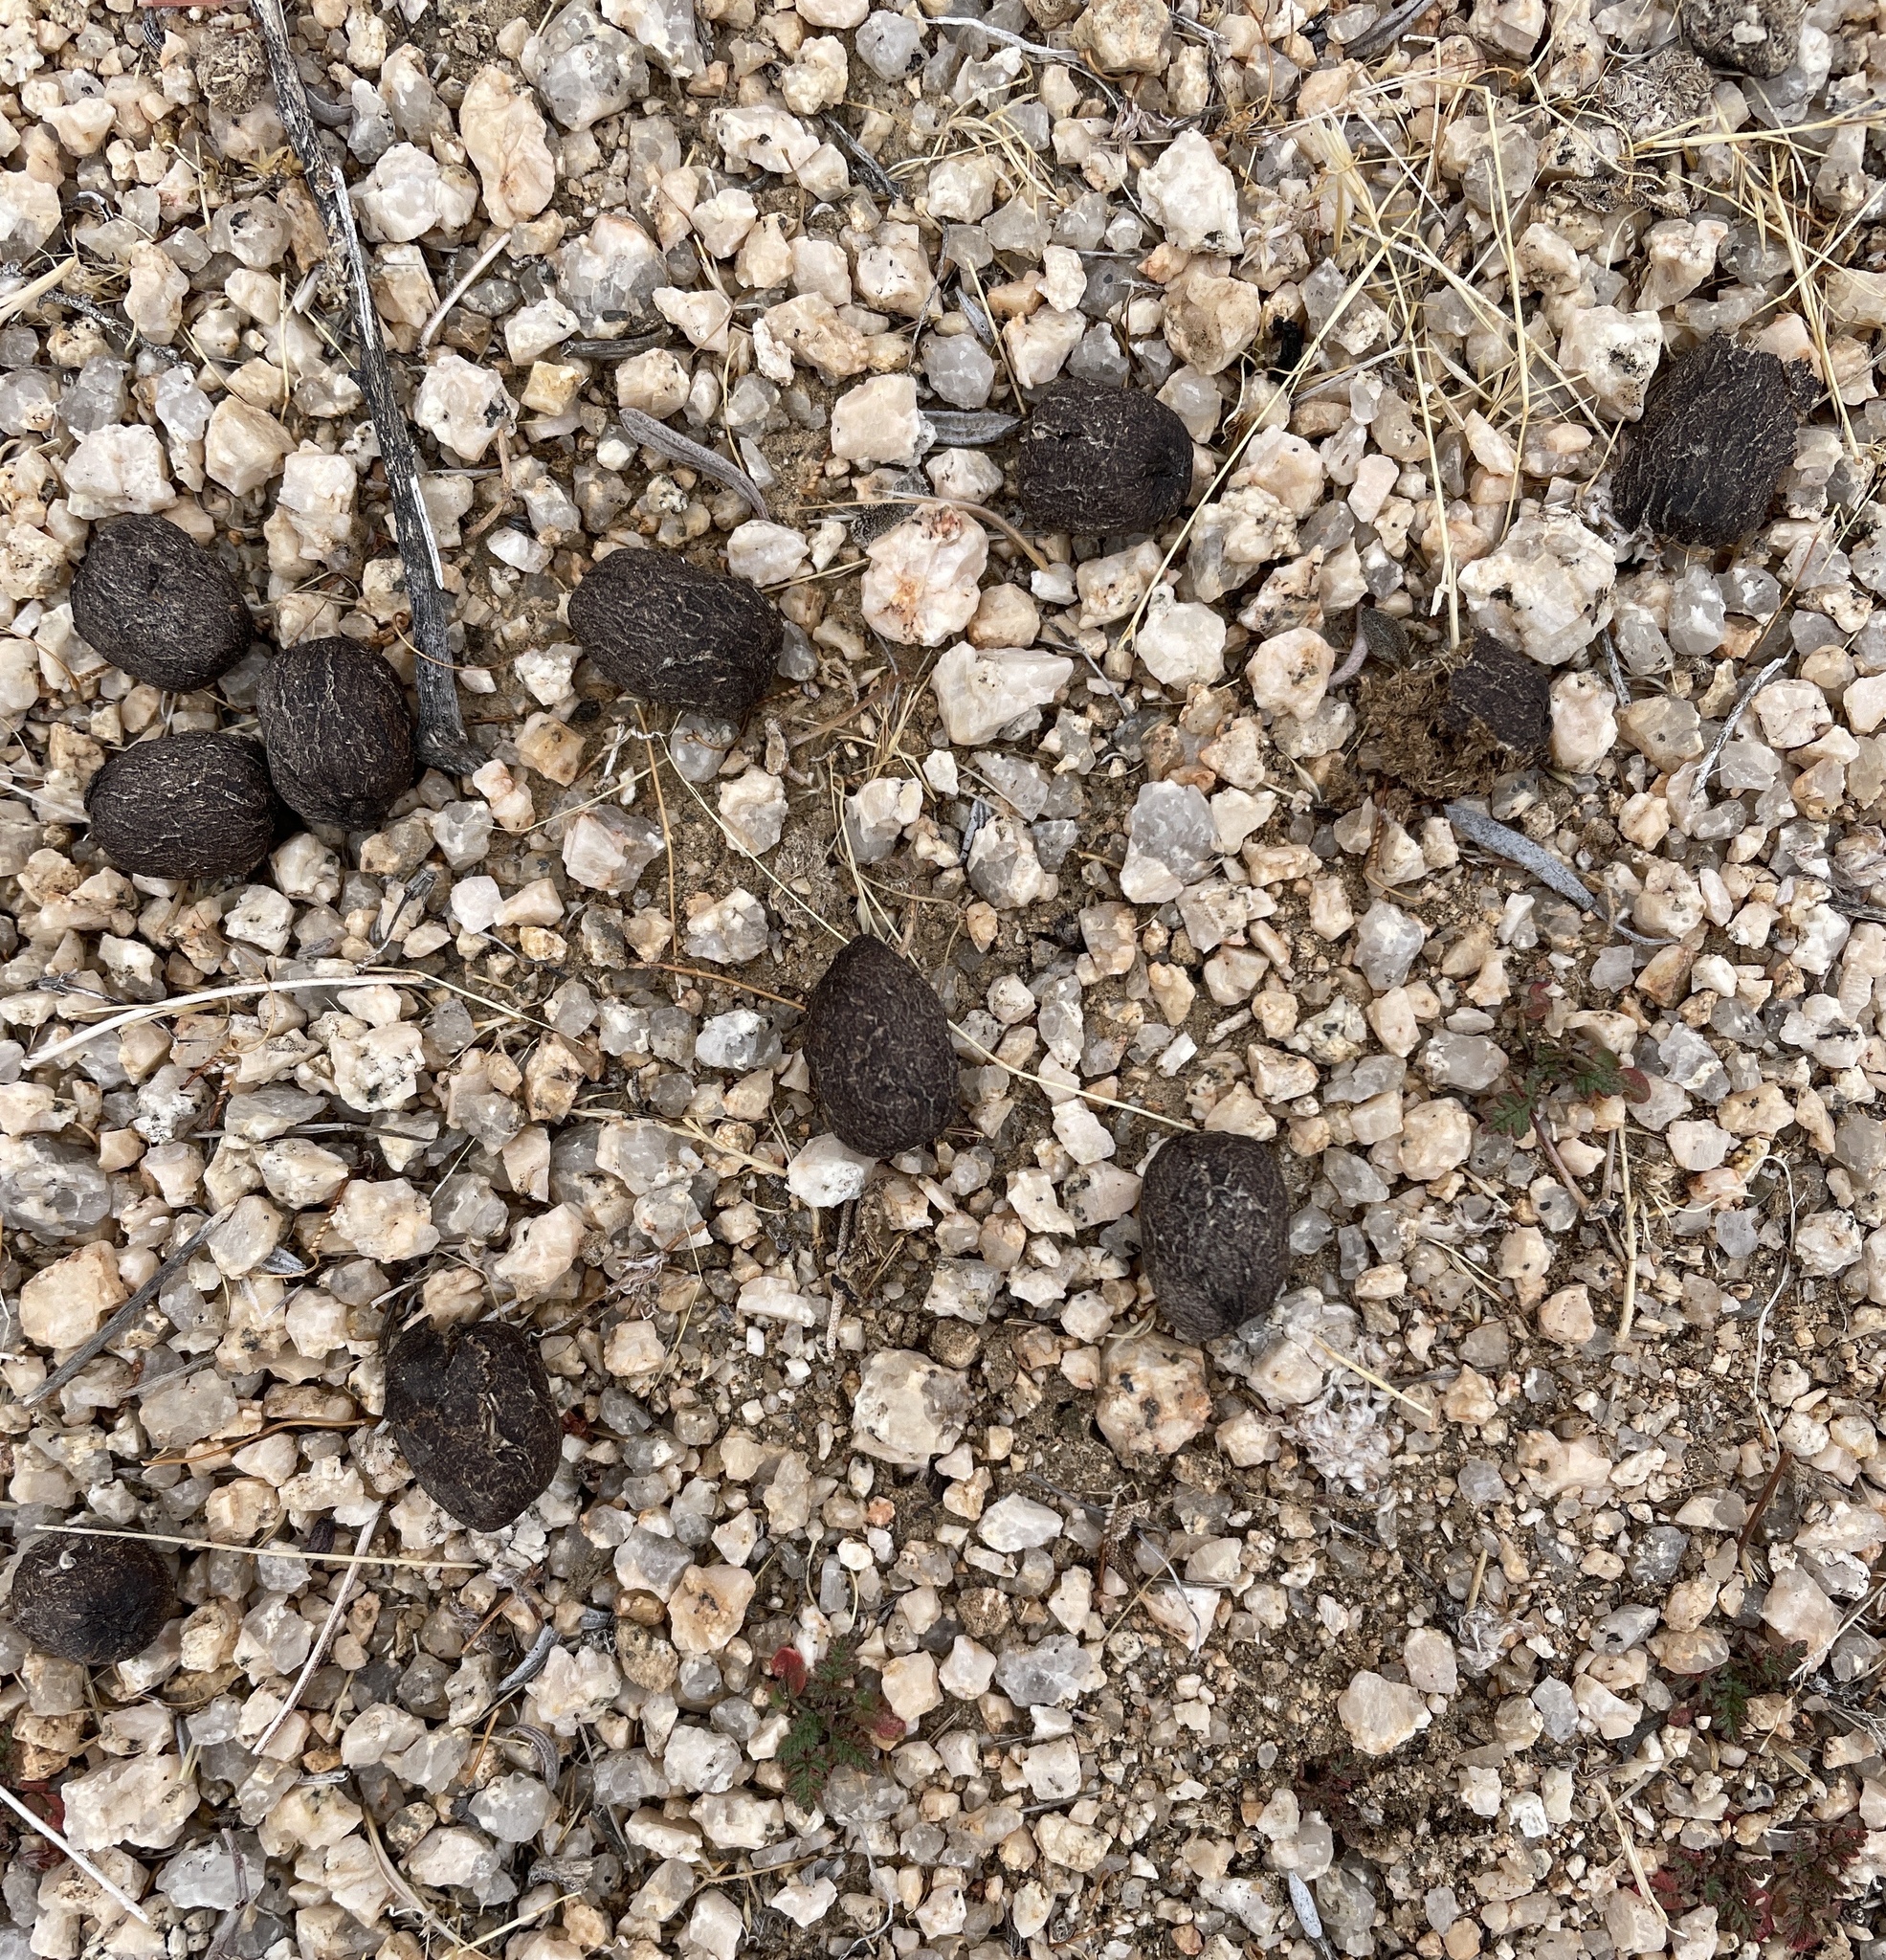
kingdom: Animalia
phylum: Chordata
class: Mammalia
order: Artiodactyla
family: Bovidae
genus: Ovis
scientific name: Ovis canadensis
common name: Bighorn sheep
